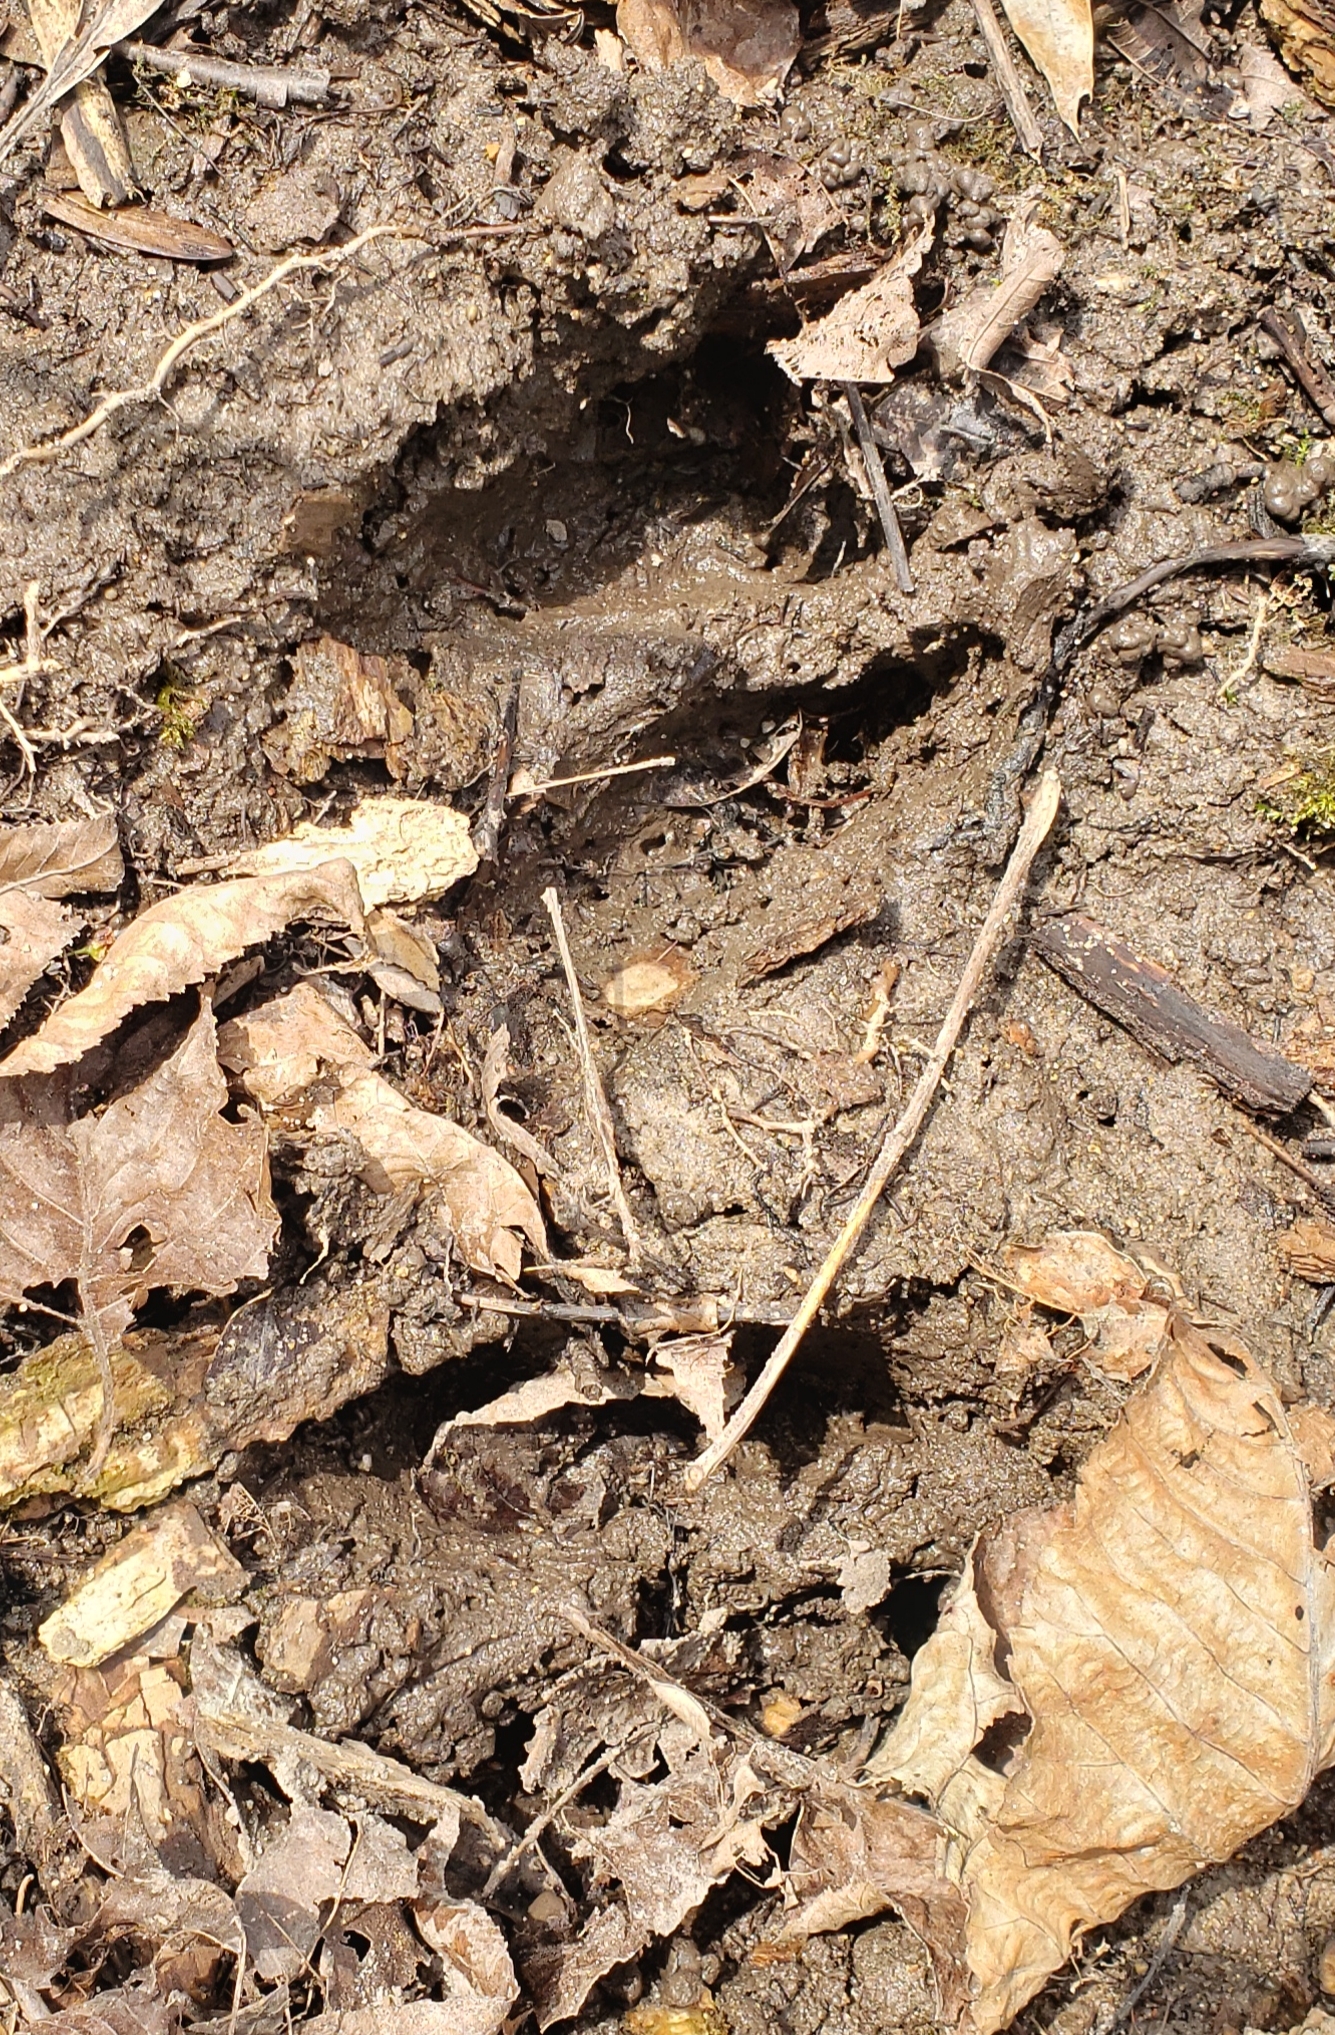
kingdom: Animalia
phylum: Chordata
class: Mammalia
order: Artiodactyla
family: Cervidae
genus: Odocoileus
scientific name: Odocoileus virginianus
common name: White-tailed deer
